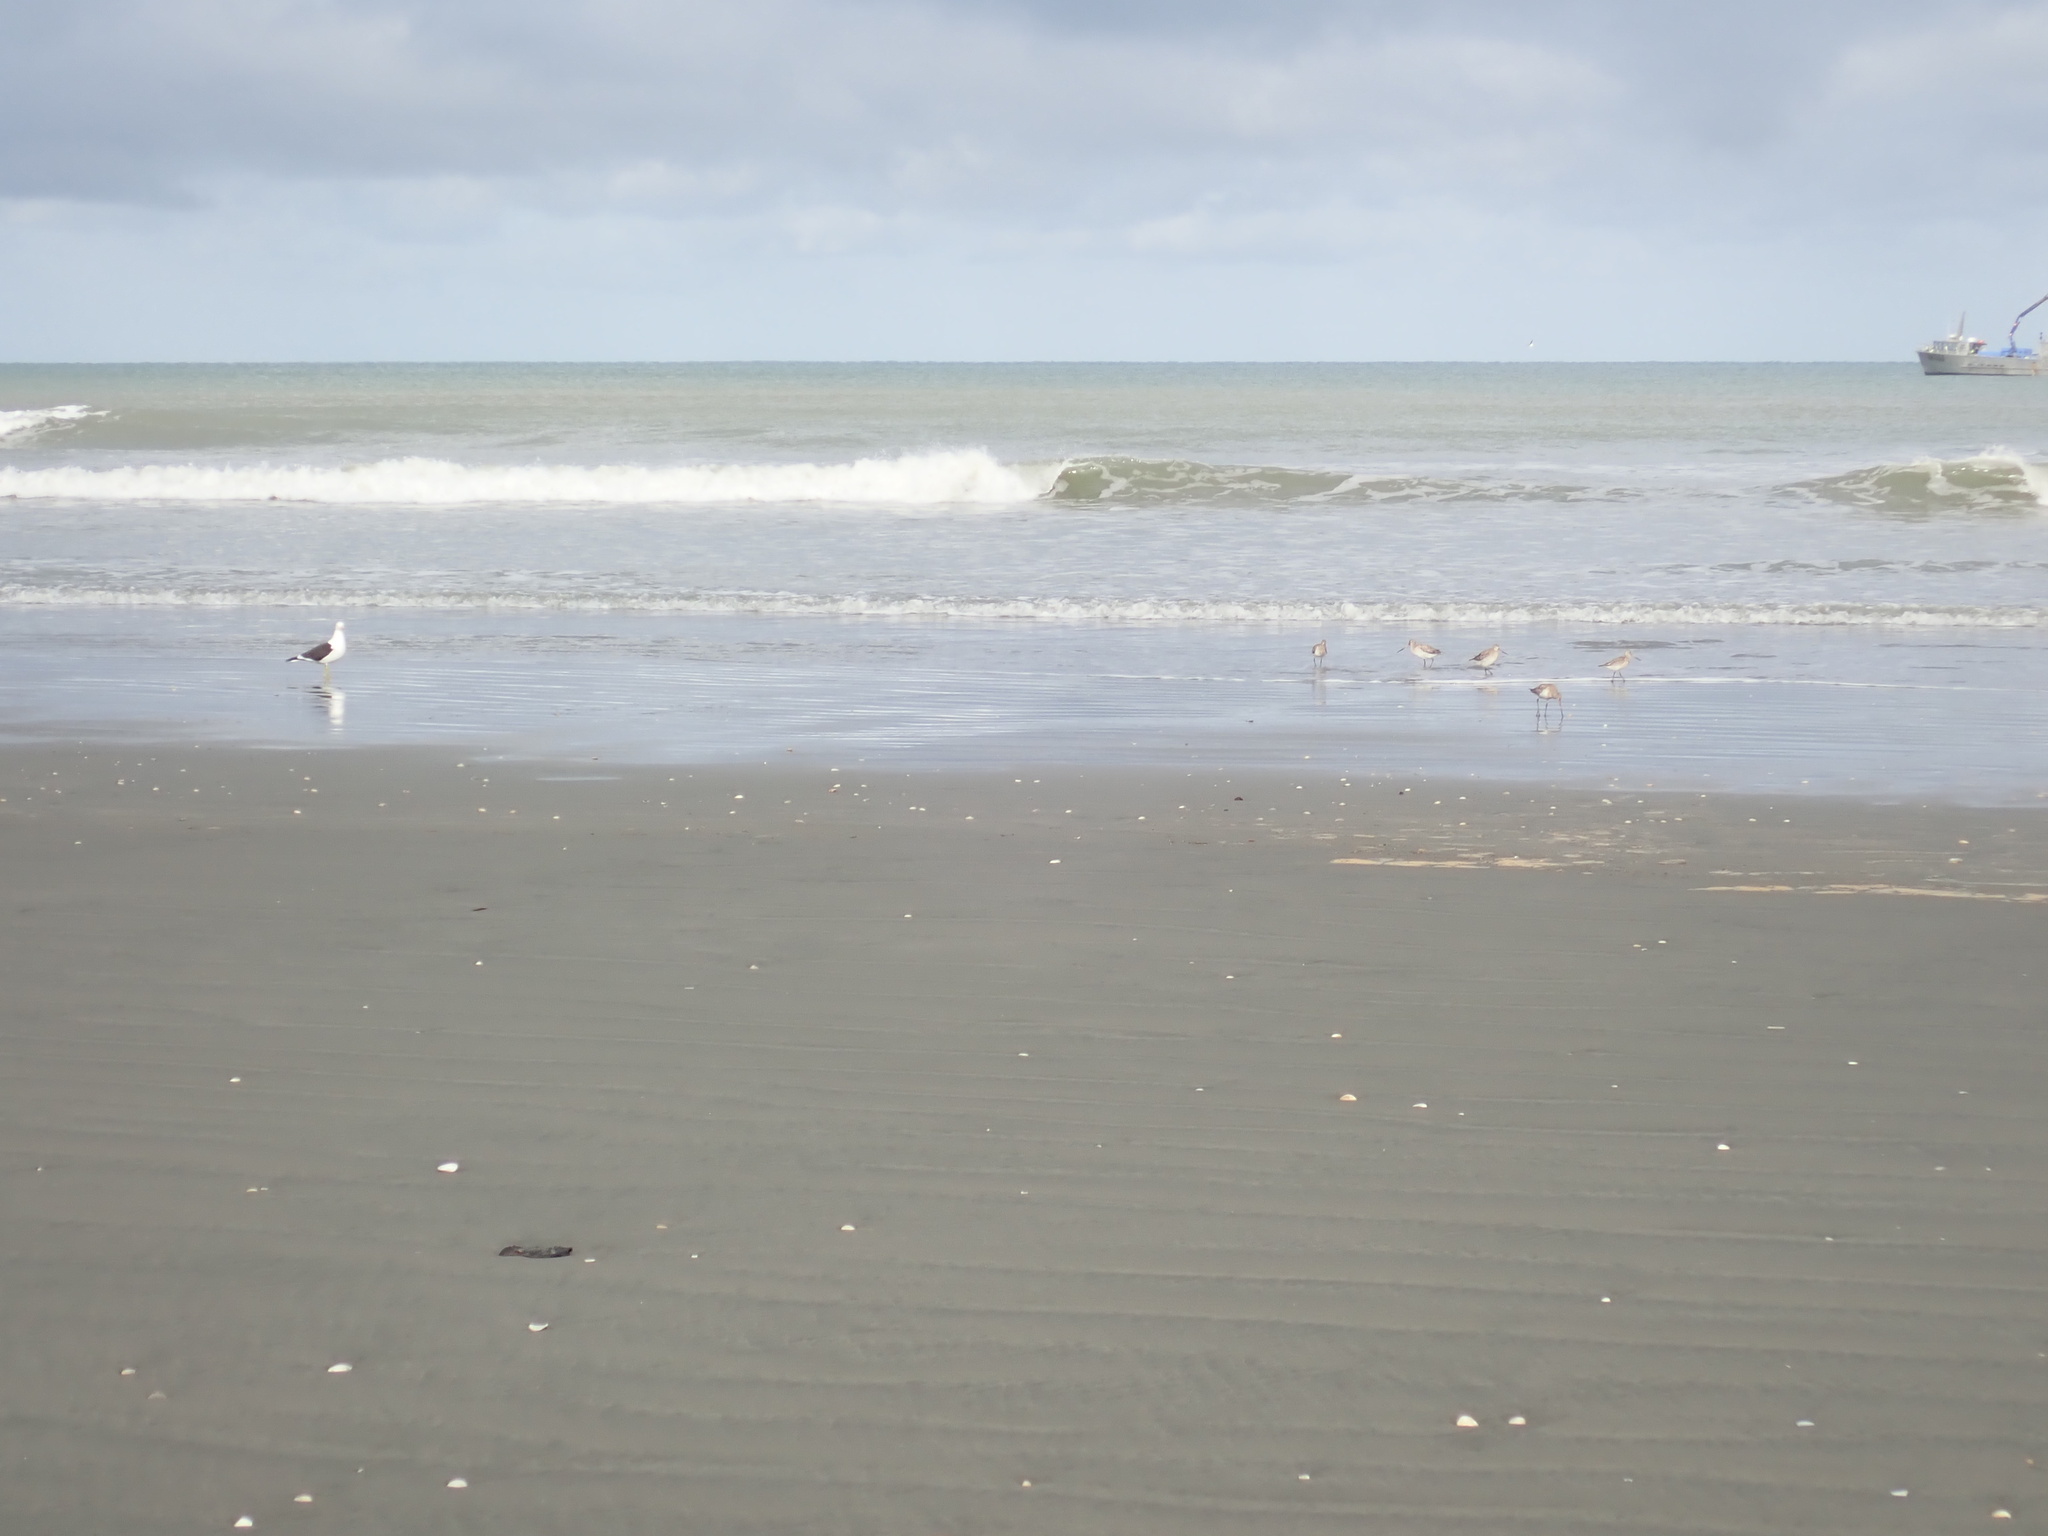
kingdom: Animalia
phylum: Chordata
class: Aves
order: Charadriiformes
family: Scolopacidae
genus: Limosa
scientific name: Limosa lapponica
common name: Bar-tailed godwit
